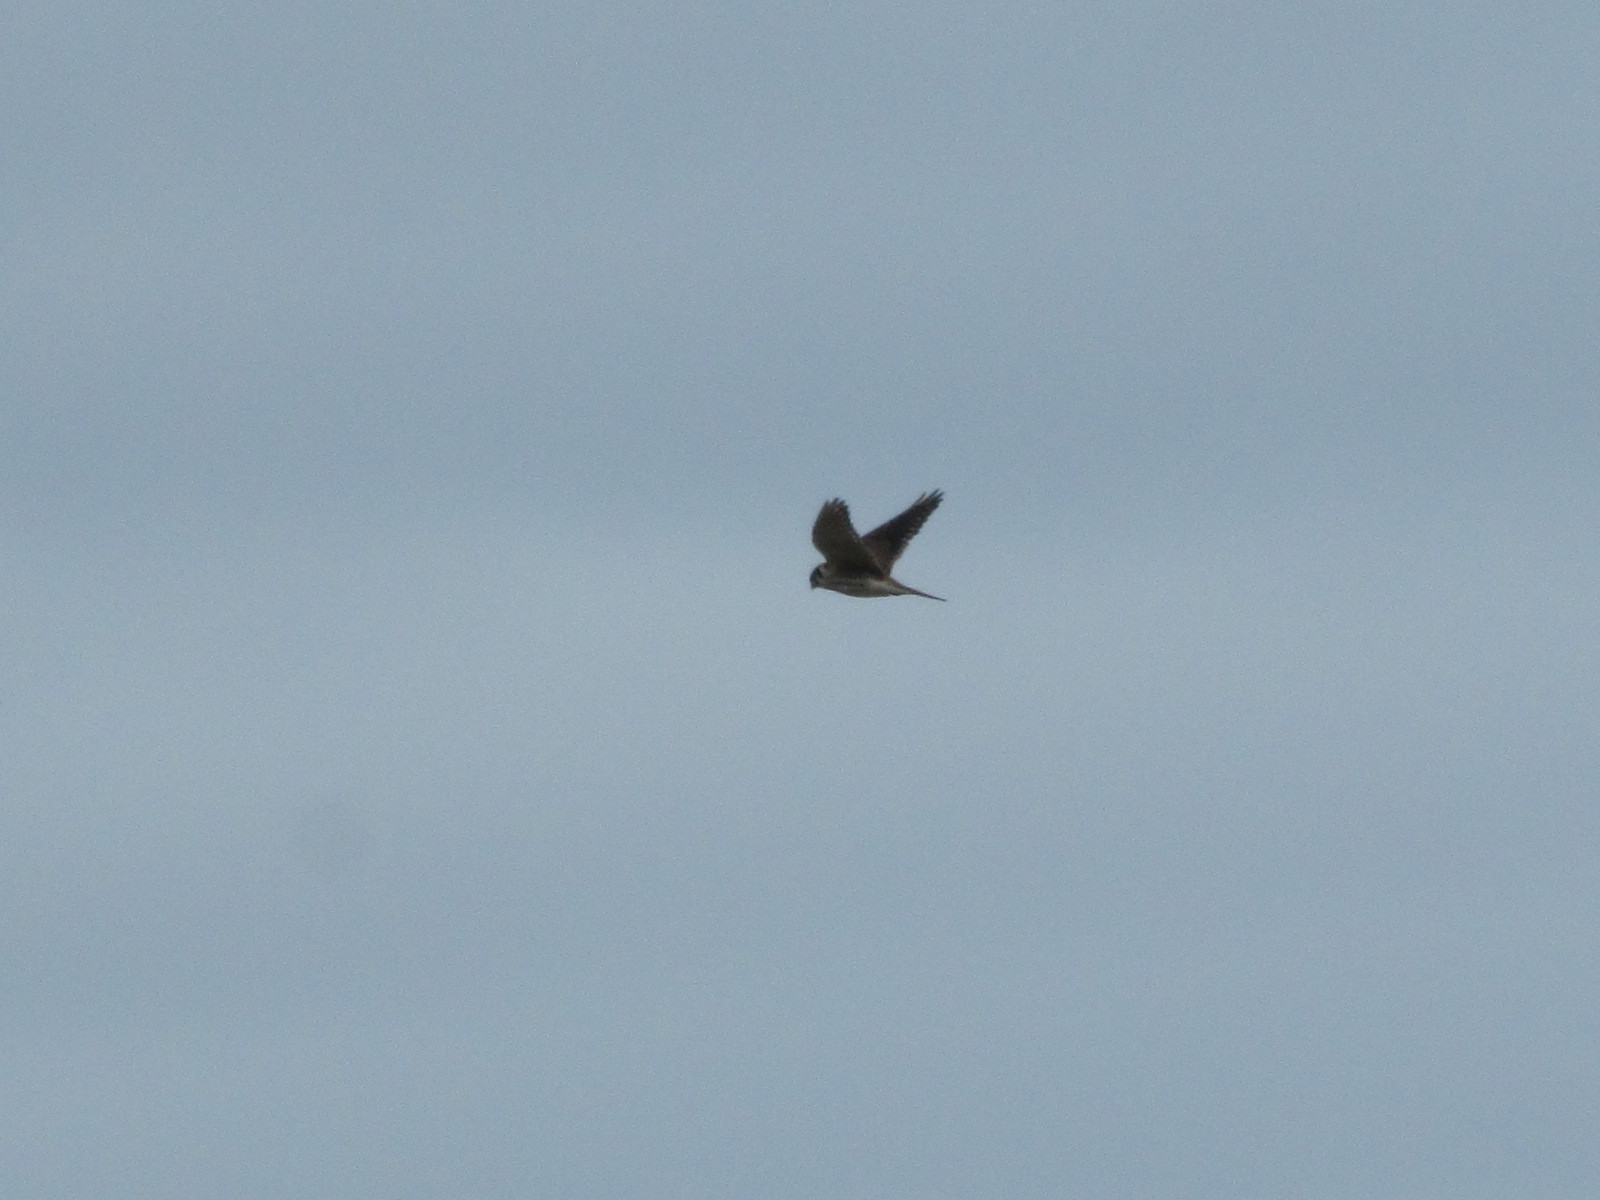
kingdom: Animalia
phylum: Chordata
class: Aves
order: Falconiformes
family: Falconidae
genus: Falco
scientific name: Falco sparverius
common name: American kestrel
